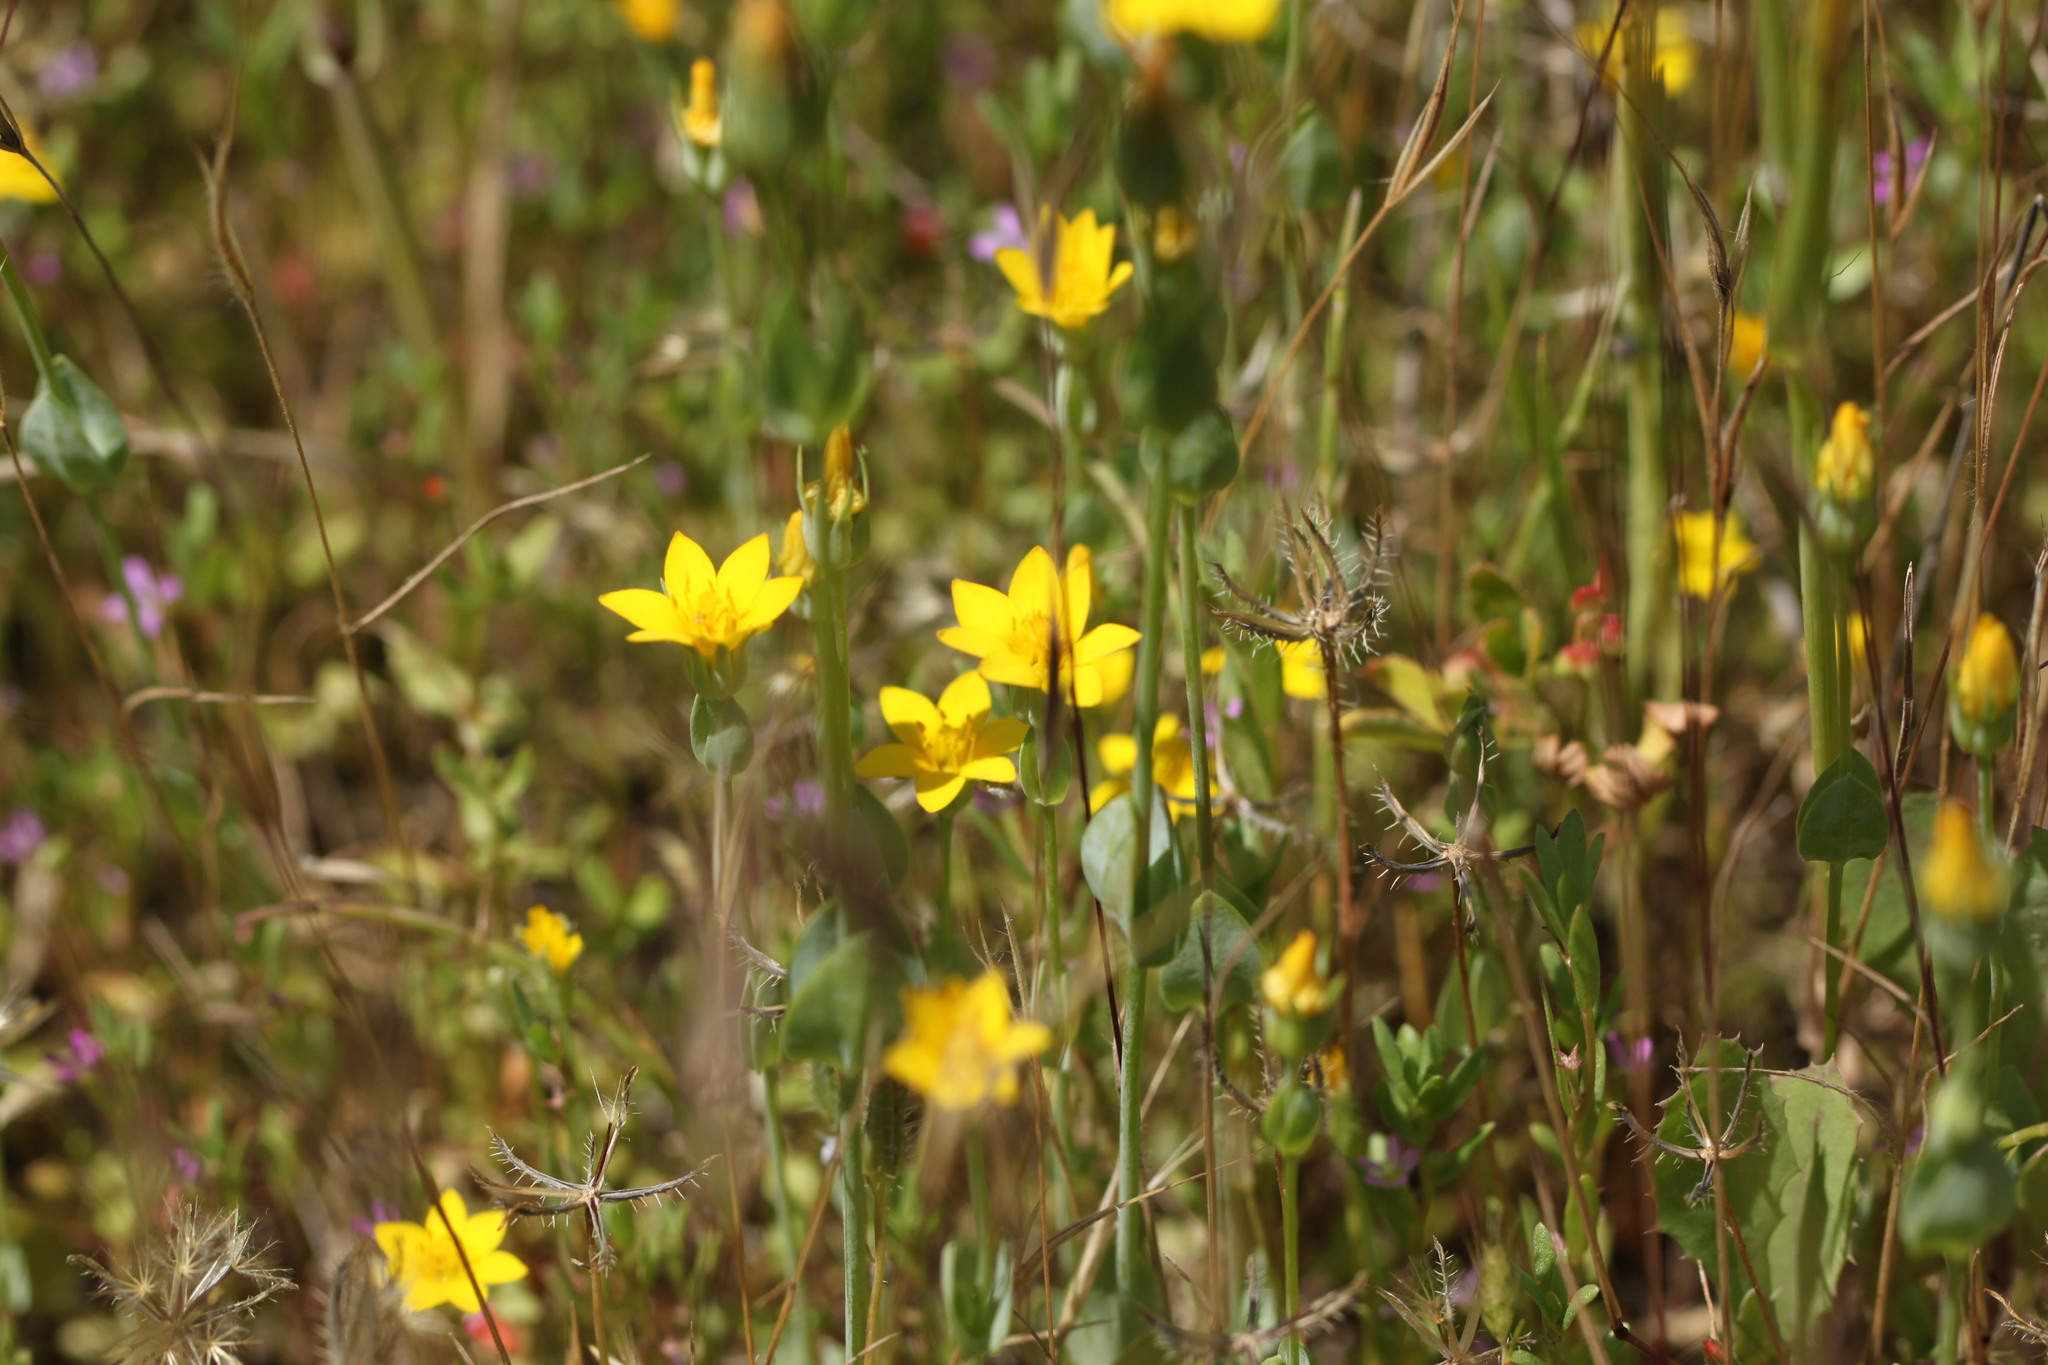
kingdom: Plantae
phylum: Tracheophyta
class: Magnoliopsida
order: Gentianales
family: Gentianaceae
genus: Blackstonia
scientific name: Blackstonia perfoliata
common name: Yellow-wort
